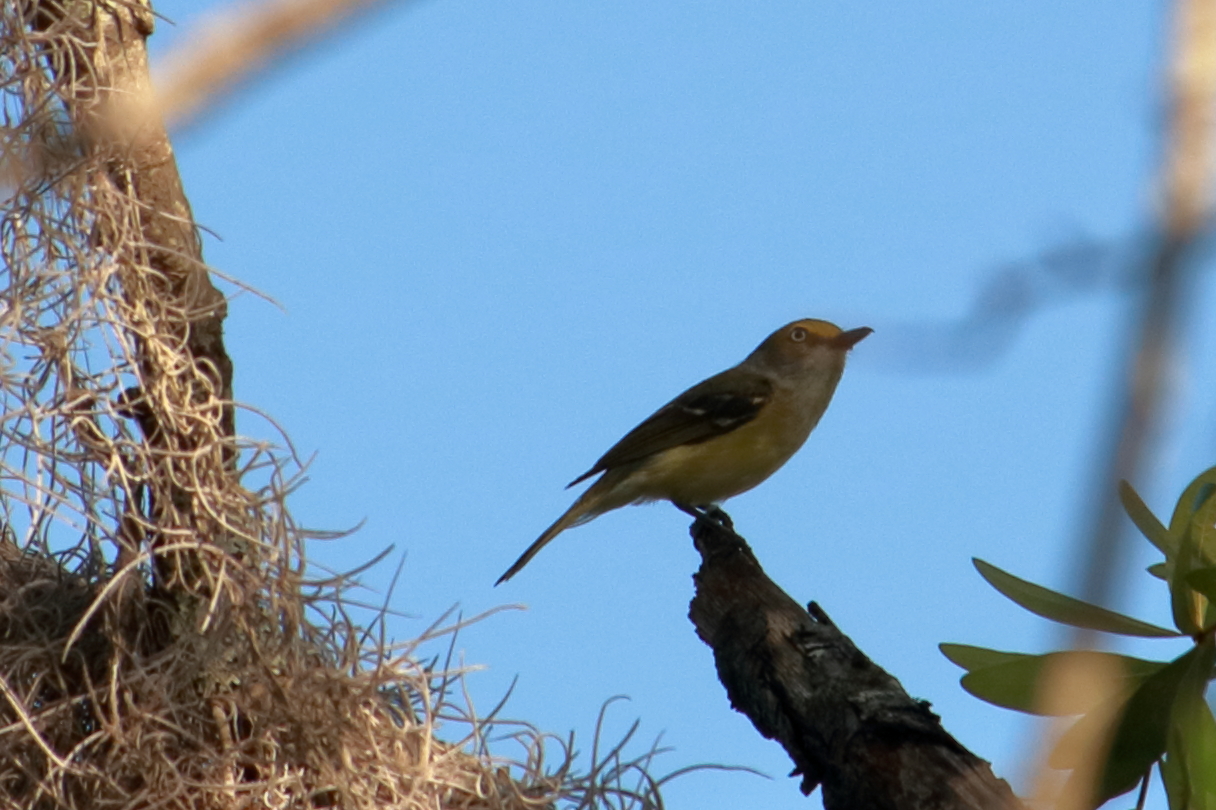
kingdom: Animalia
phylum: Chordata
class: Aves
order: Passeriformes
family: Vireonidae
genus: Vireo
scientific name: Vireo griseus
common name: White-eyed vireo
